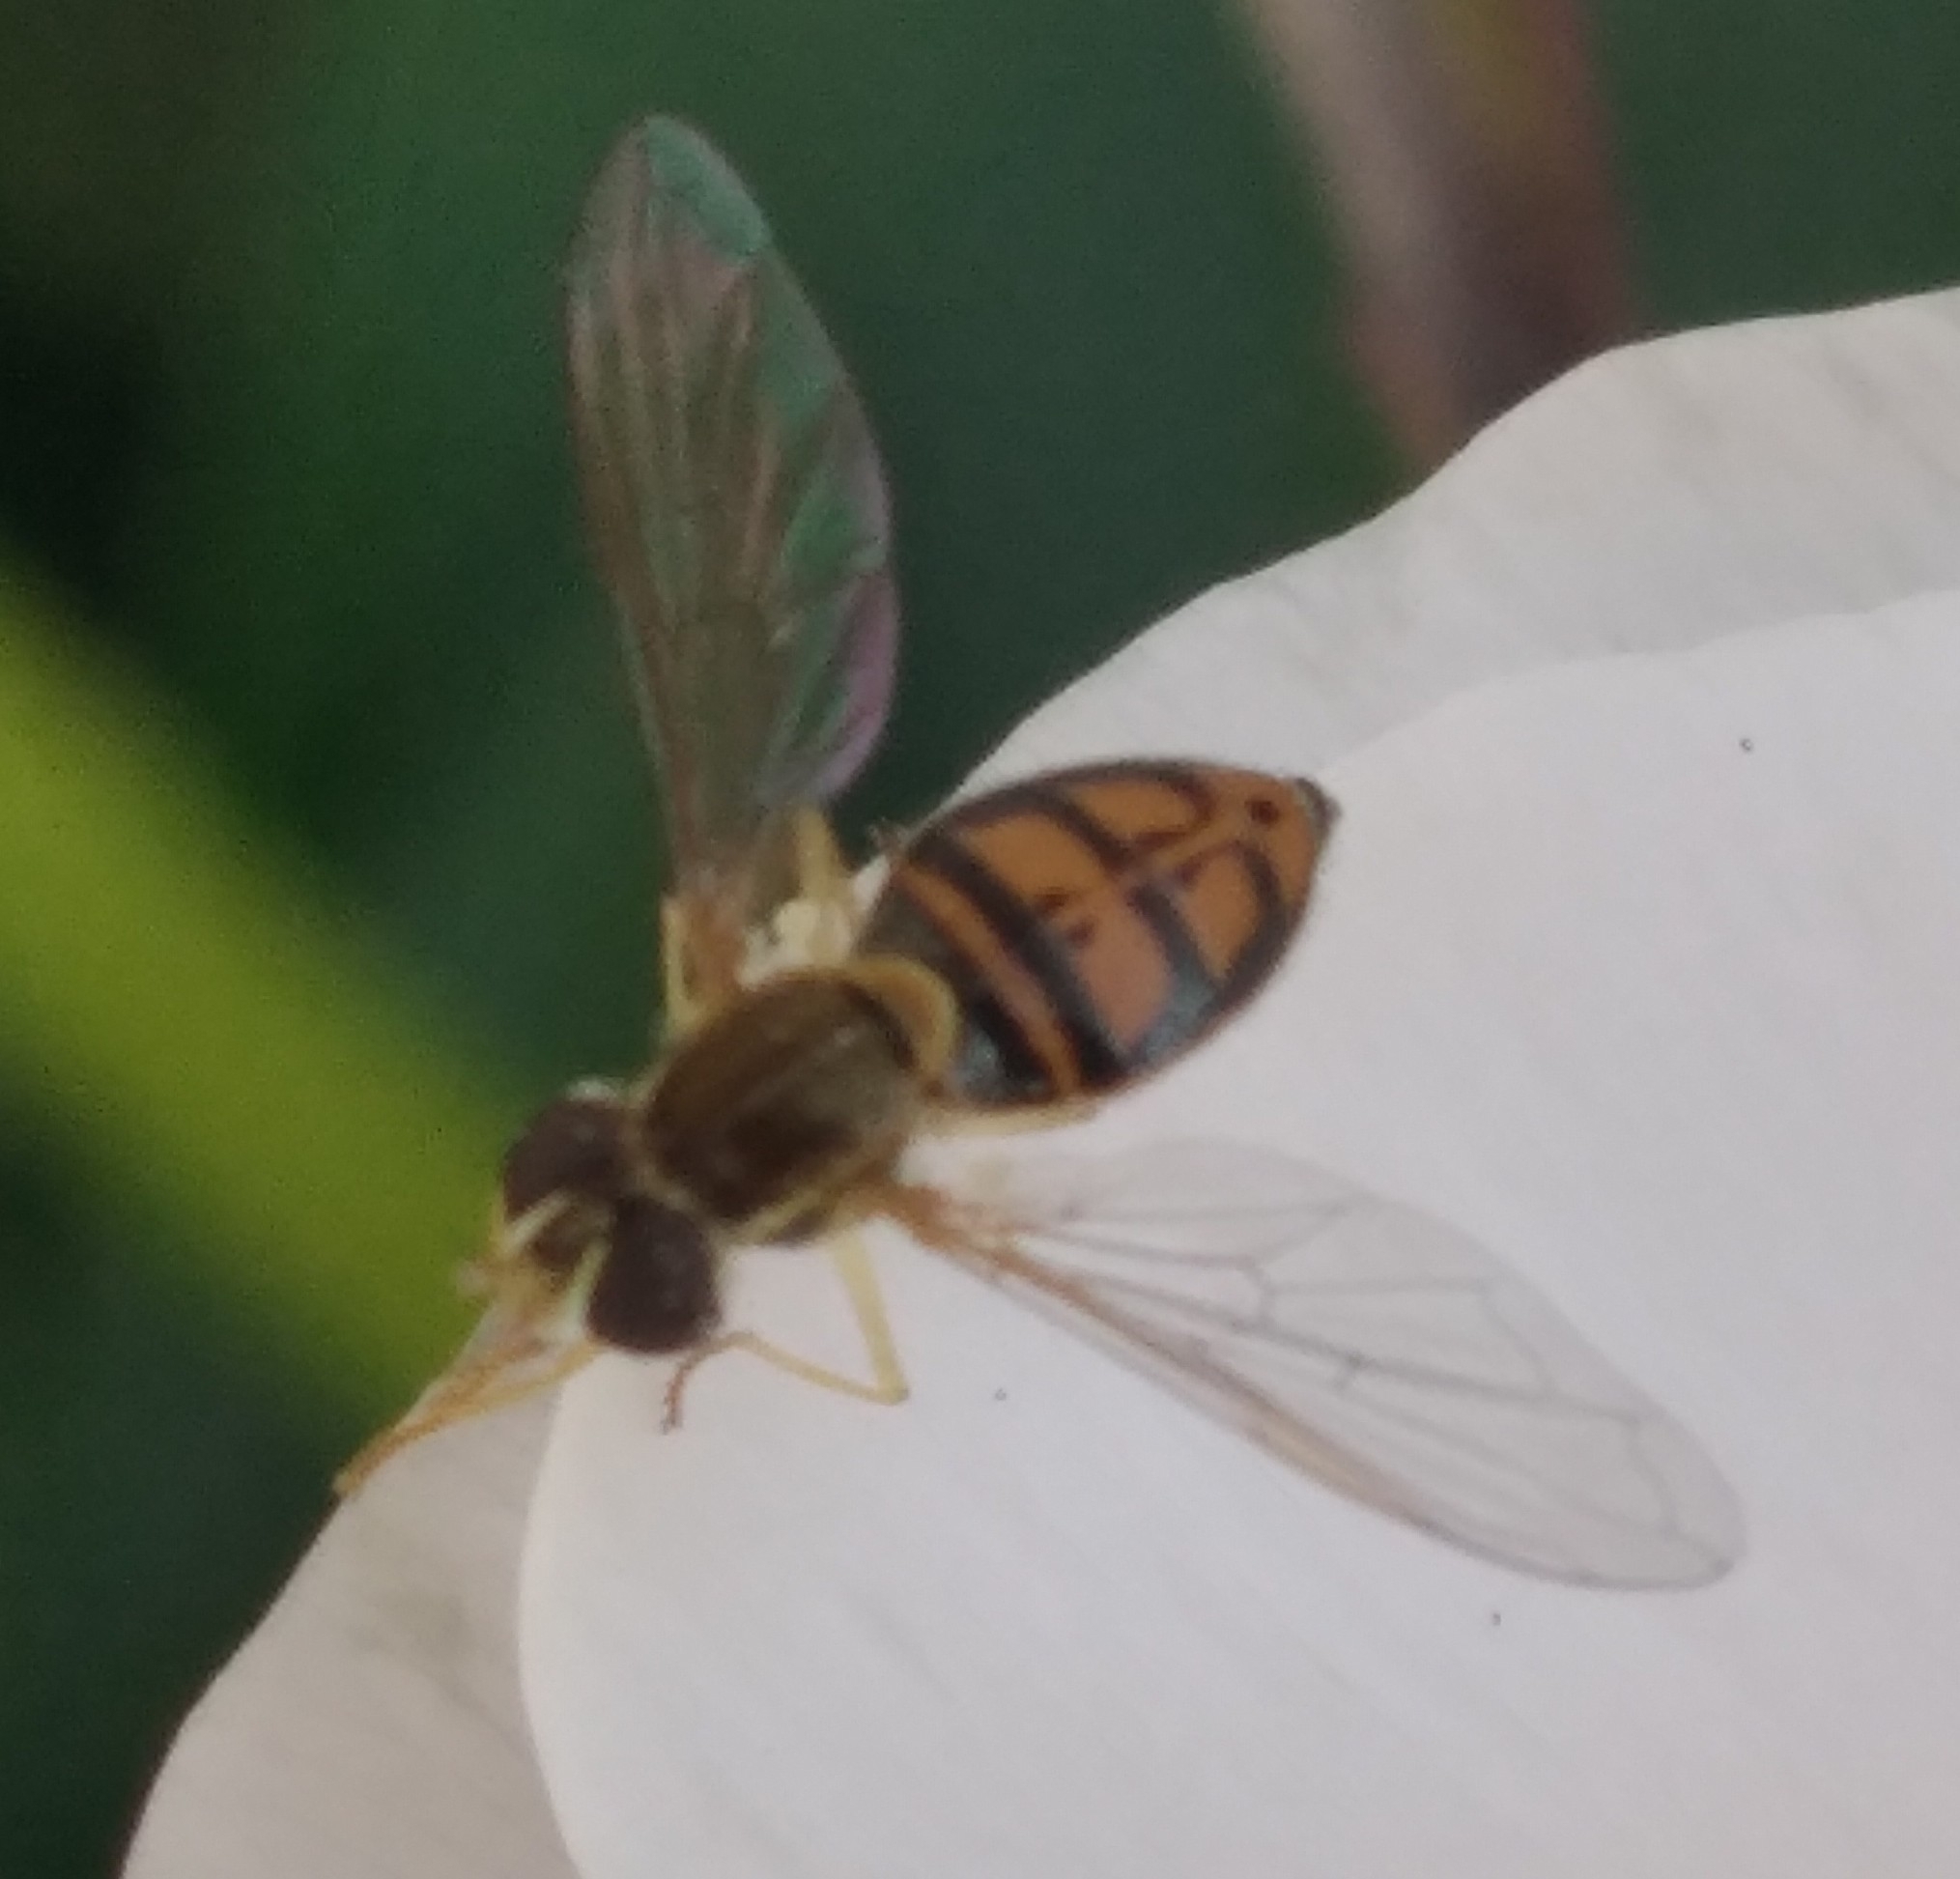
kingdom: Animalia
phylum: Arthropoda
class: Insecta
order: Diptera
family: Syrphidae
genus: Toxomerus
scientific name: Toxomerus marginatus
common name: Syrphid fly
